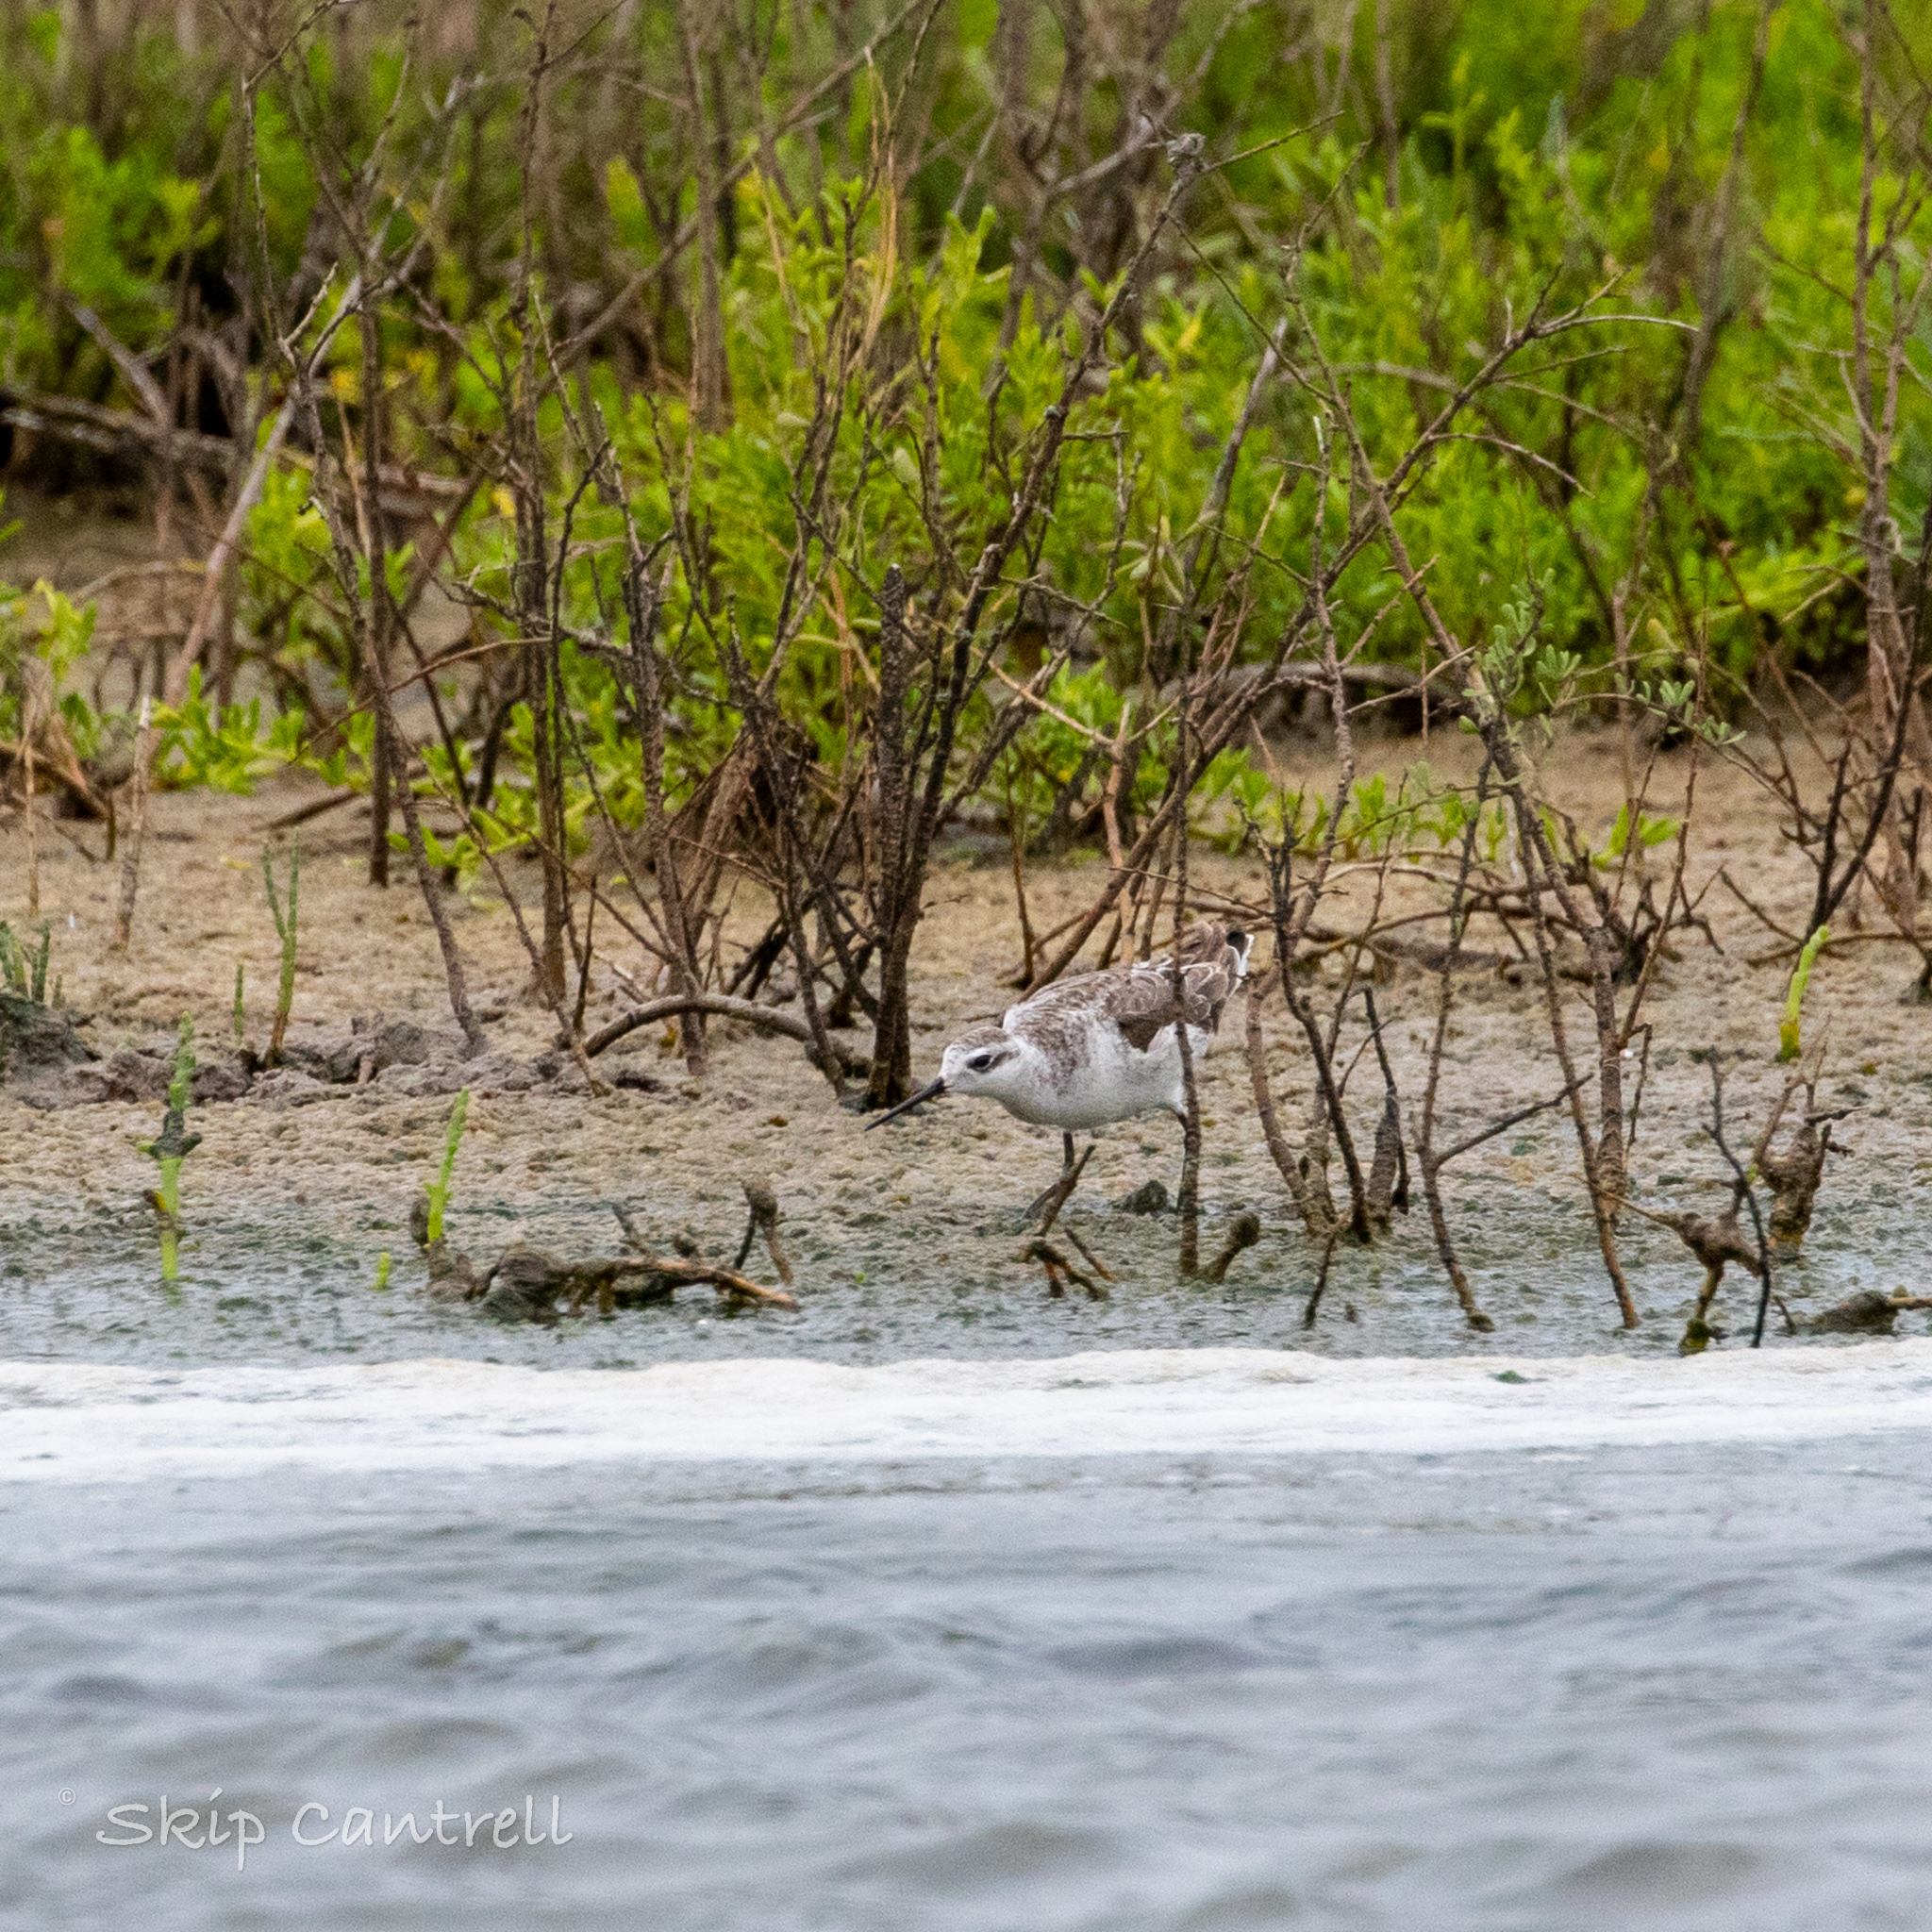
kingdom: Animalia
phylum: Chordata
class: Aves
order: Charadriiformes
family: Scolopacidae
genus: Phalaropus
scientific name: Phalaropus tricolor
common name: Wilson's phalarope
